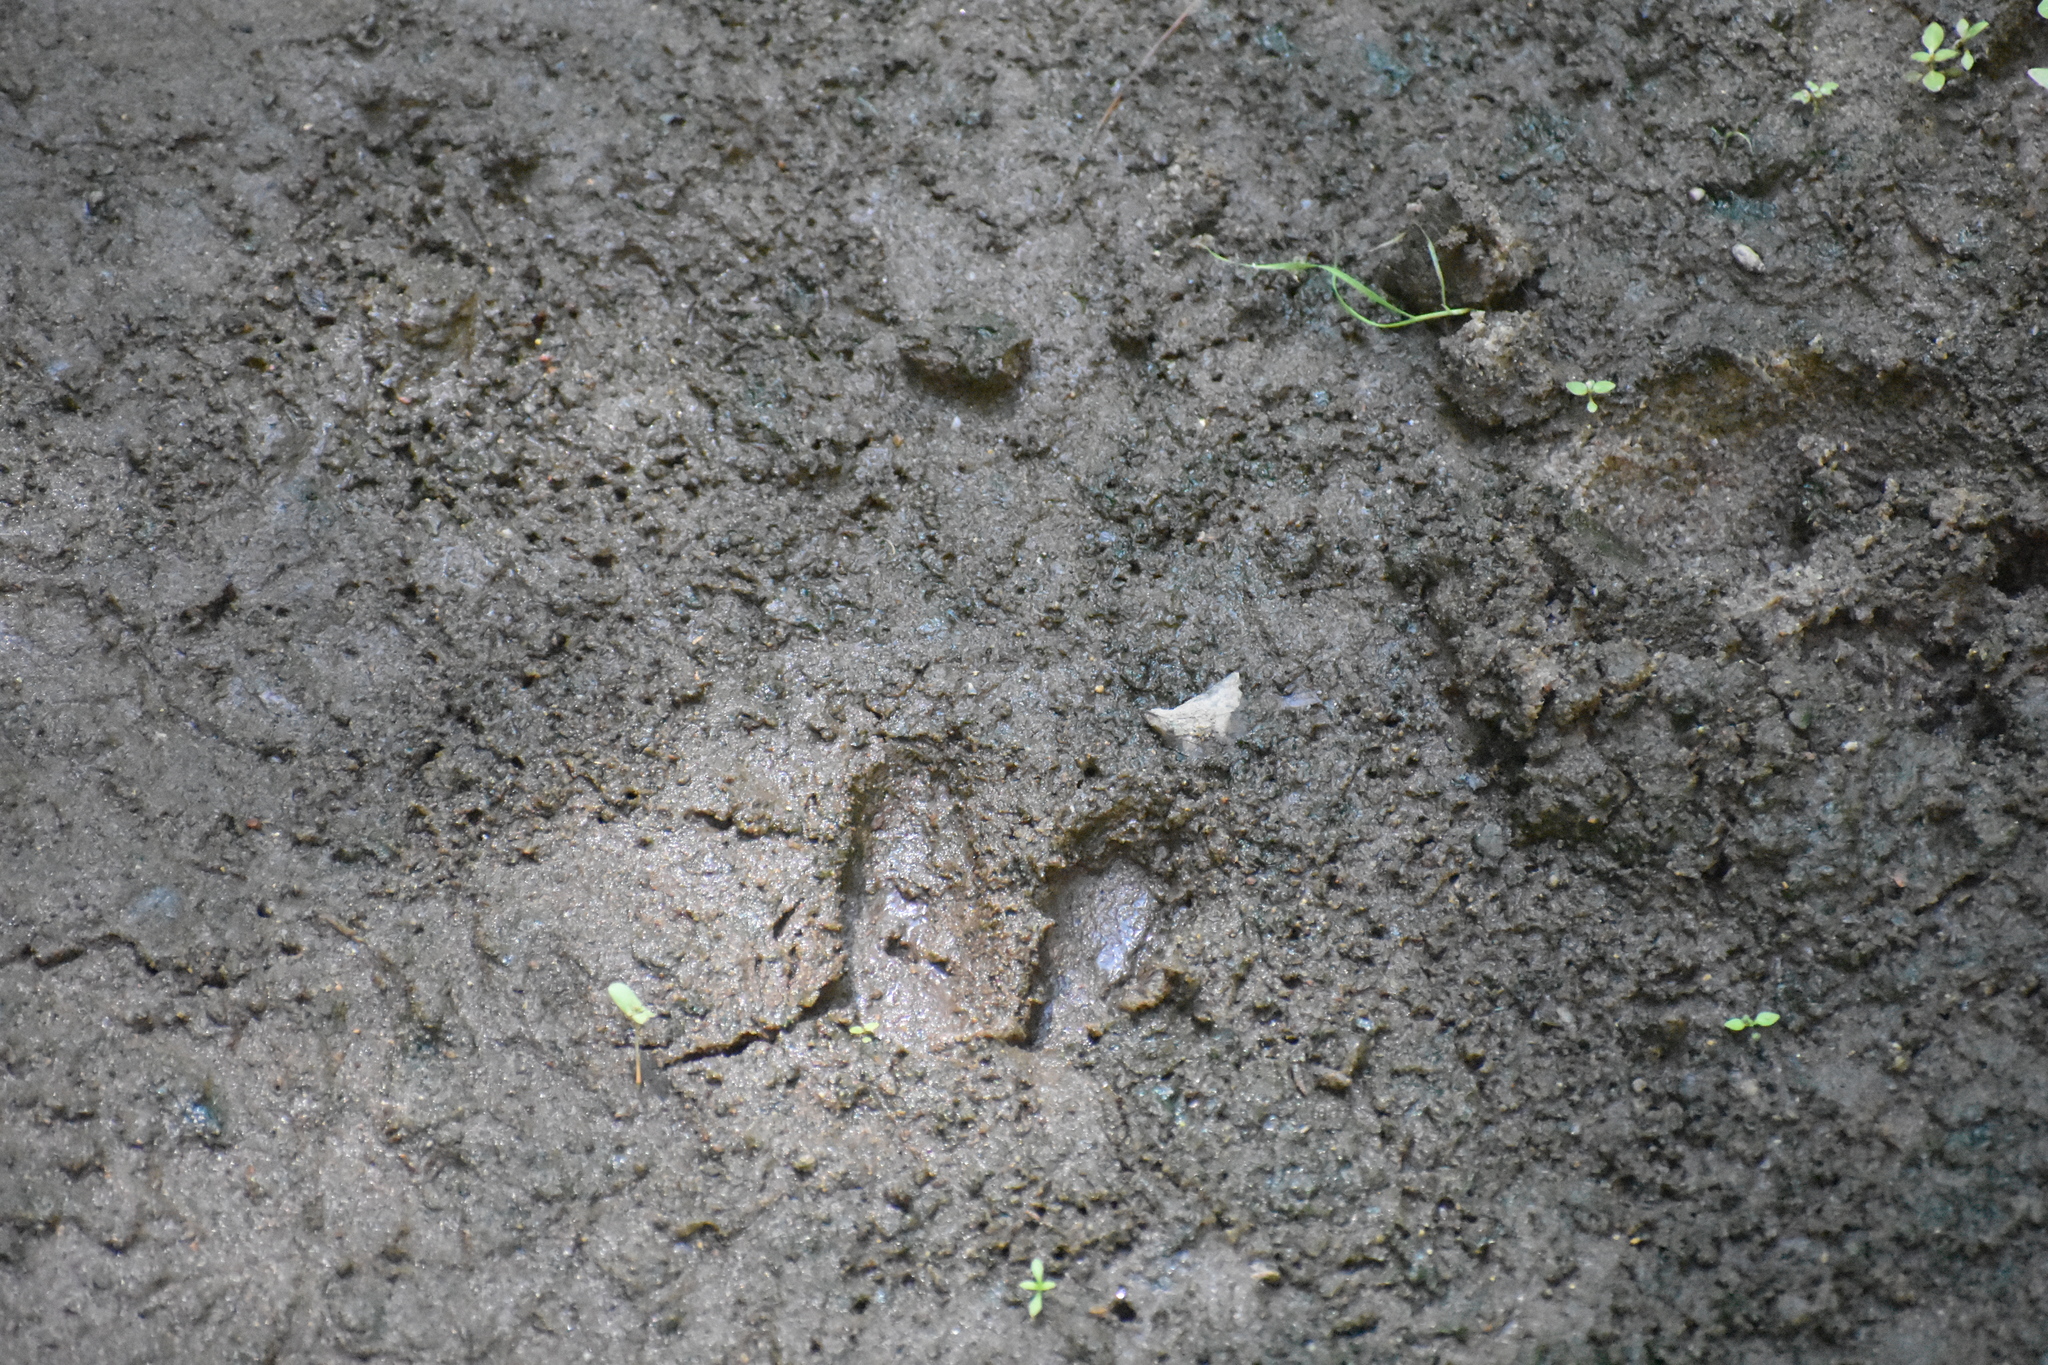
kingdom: Animalia
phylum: Chordata
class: Mammalia
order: Artiodactyla
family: Cervidae
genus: Odocoileus
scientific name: Odocoileus virginianus
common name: White-tailed deer
